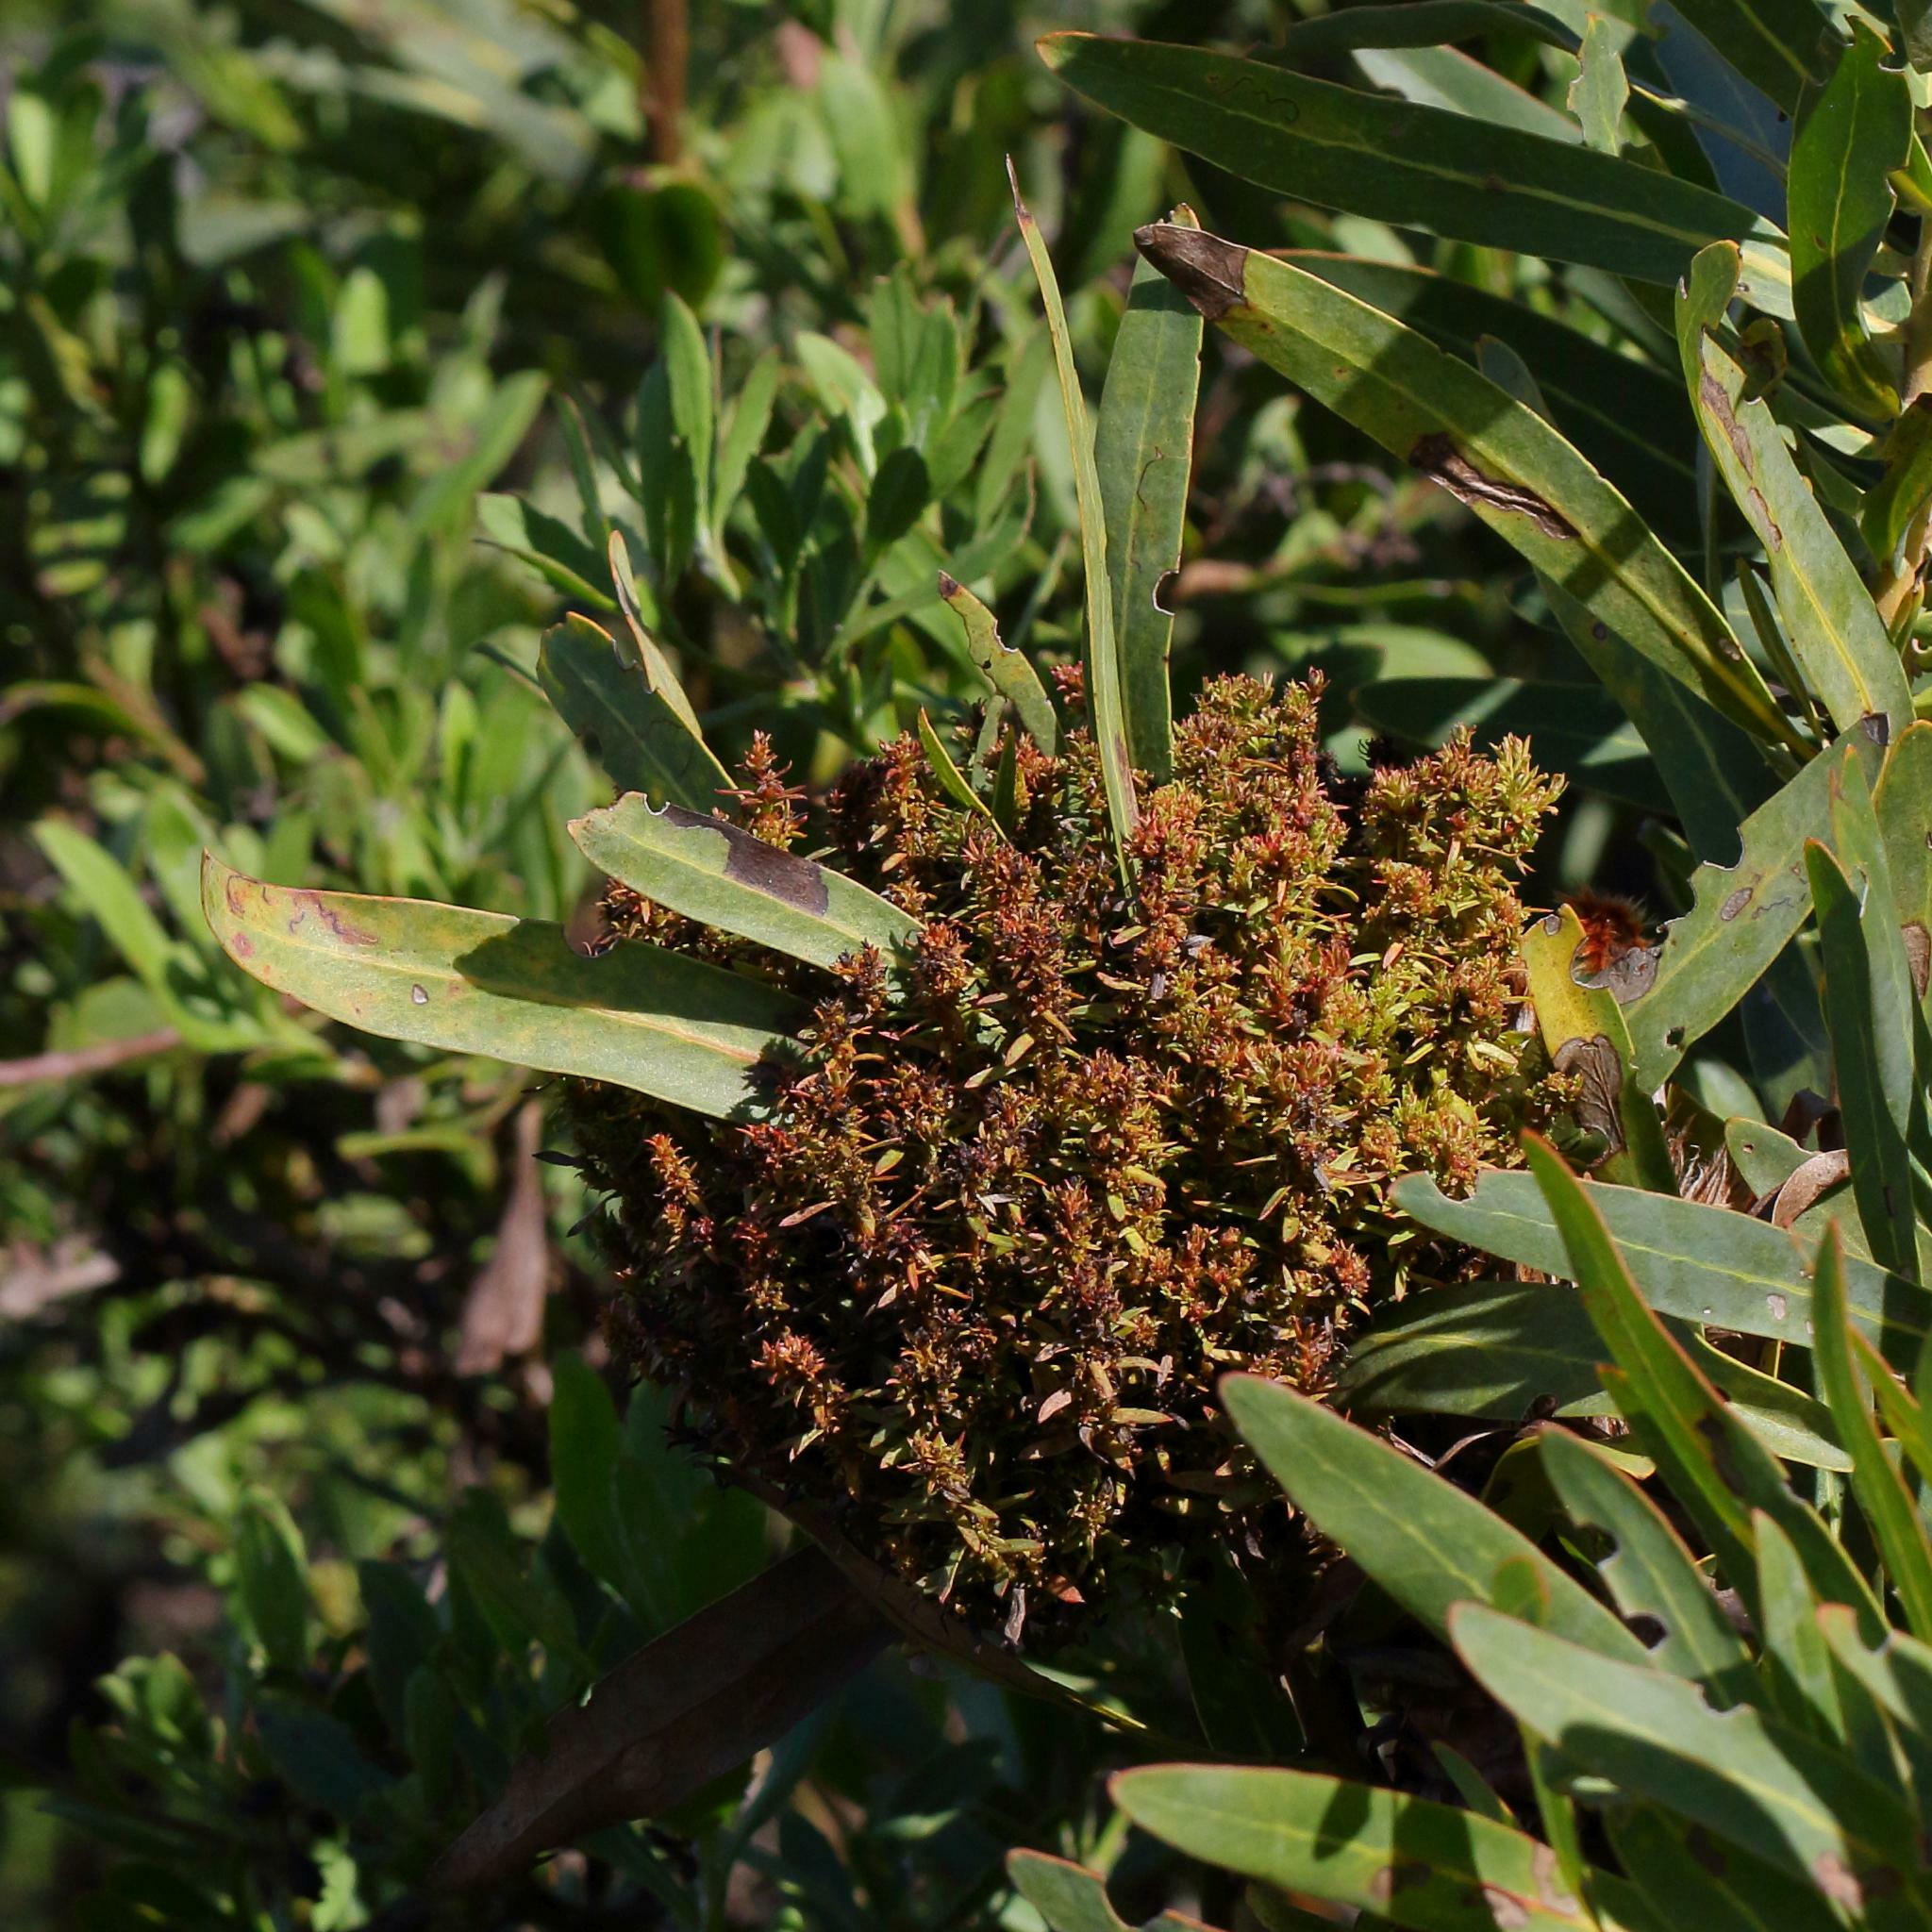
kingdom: Bacteria
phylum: Firmicutes
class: Bacilli
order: Acholeplasmatales
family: Acholeplasmataceae
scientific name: Acholeplasmataceae
